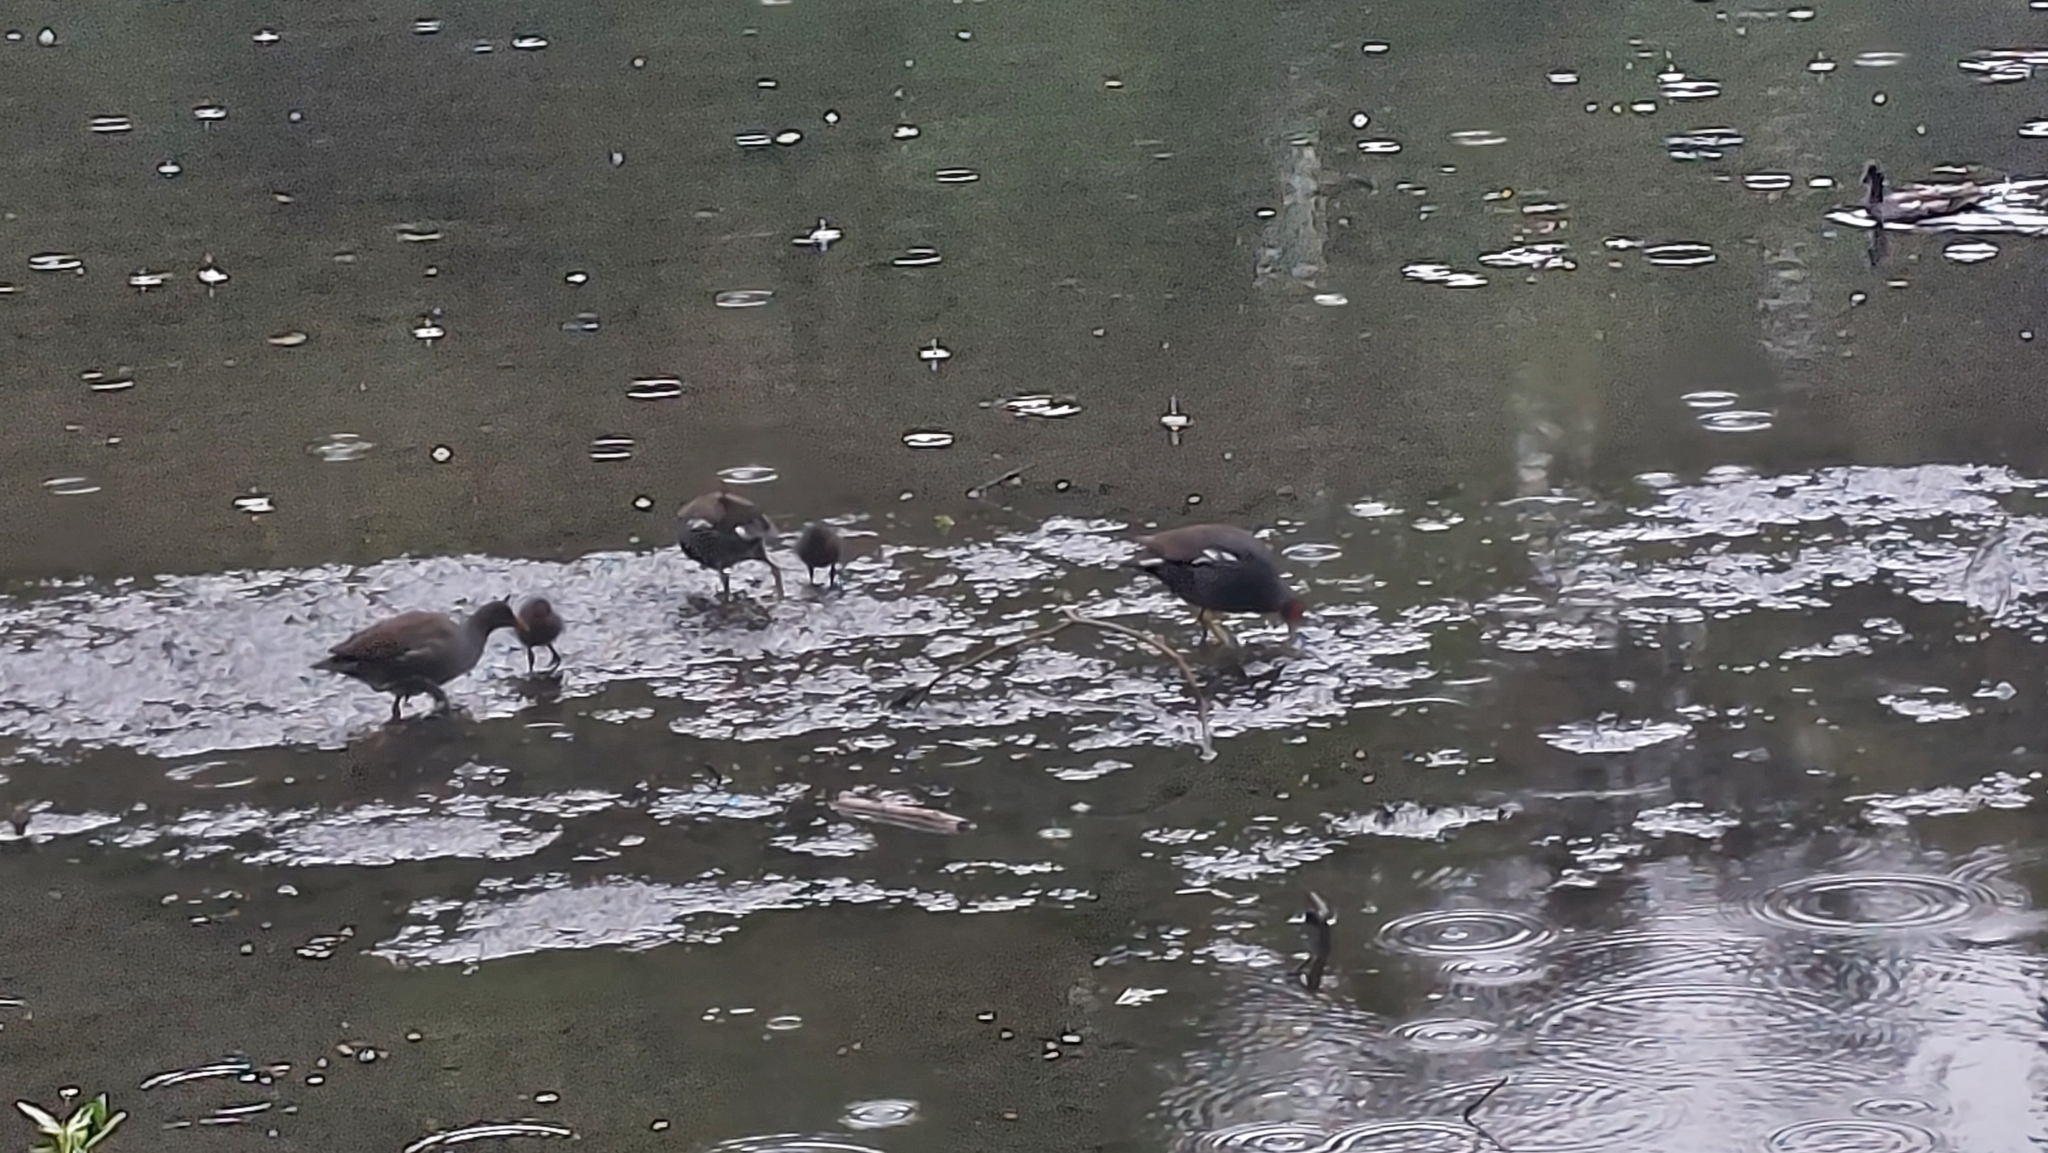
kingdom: Animalia
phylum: Chordata
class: Aves
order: Gruiformes
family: Rallidae
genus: Gallinula
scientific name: Gallinula chloropus
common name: Common moorhen
